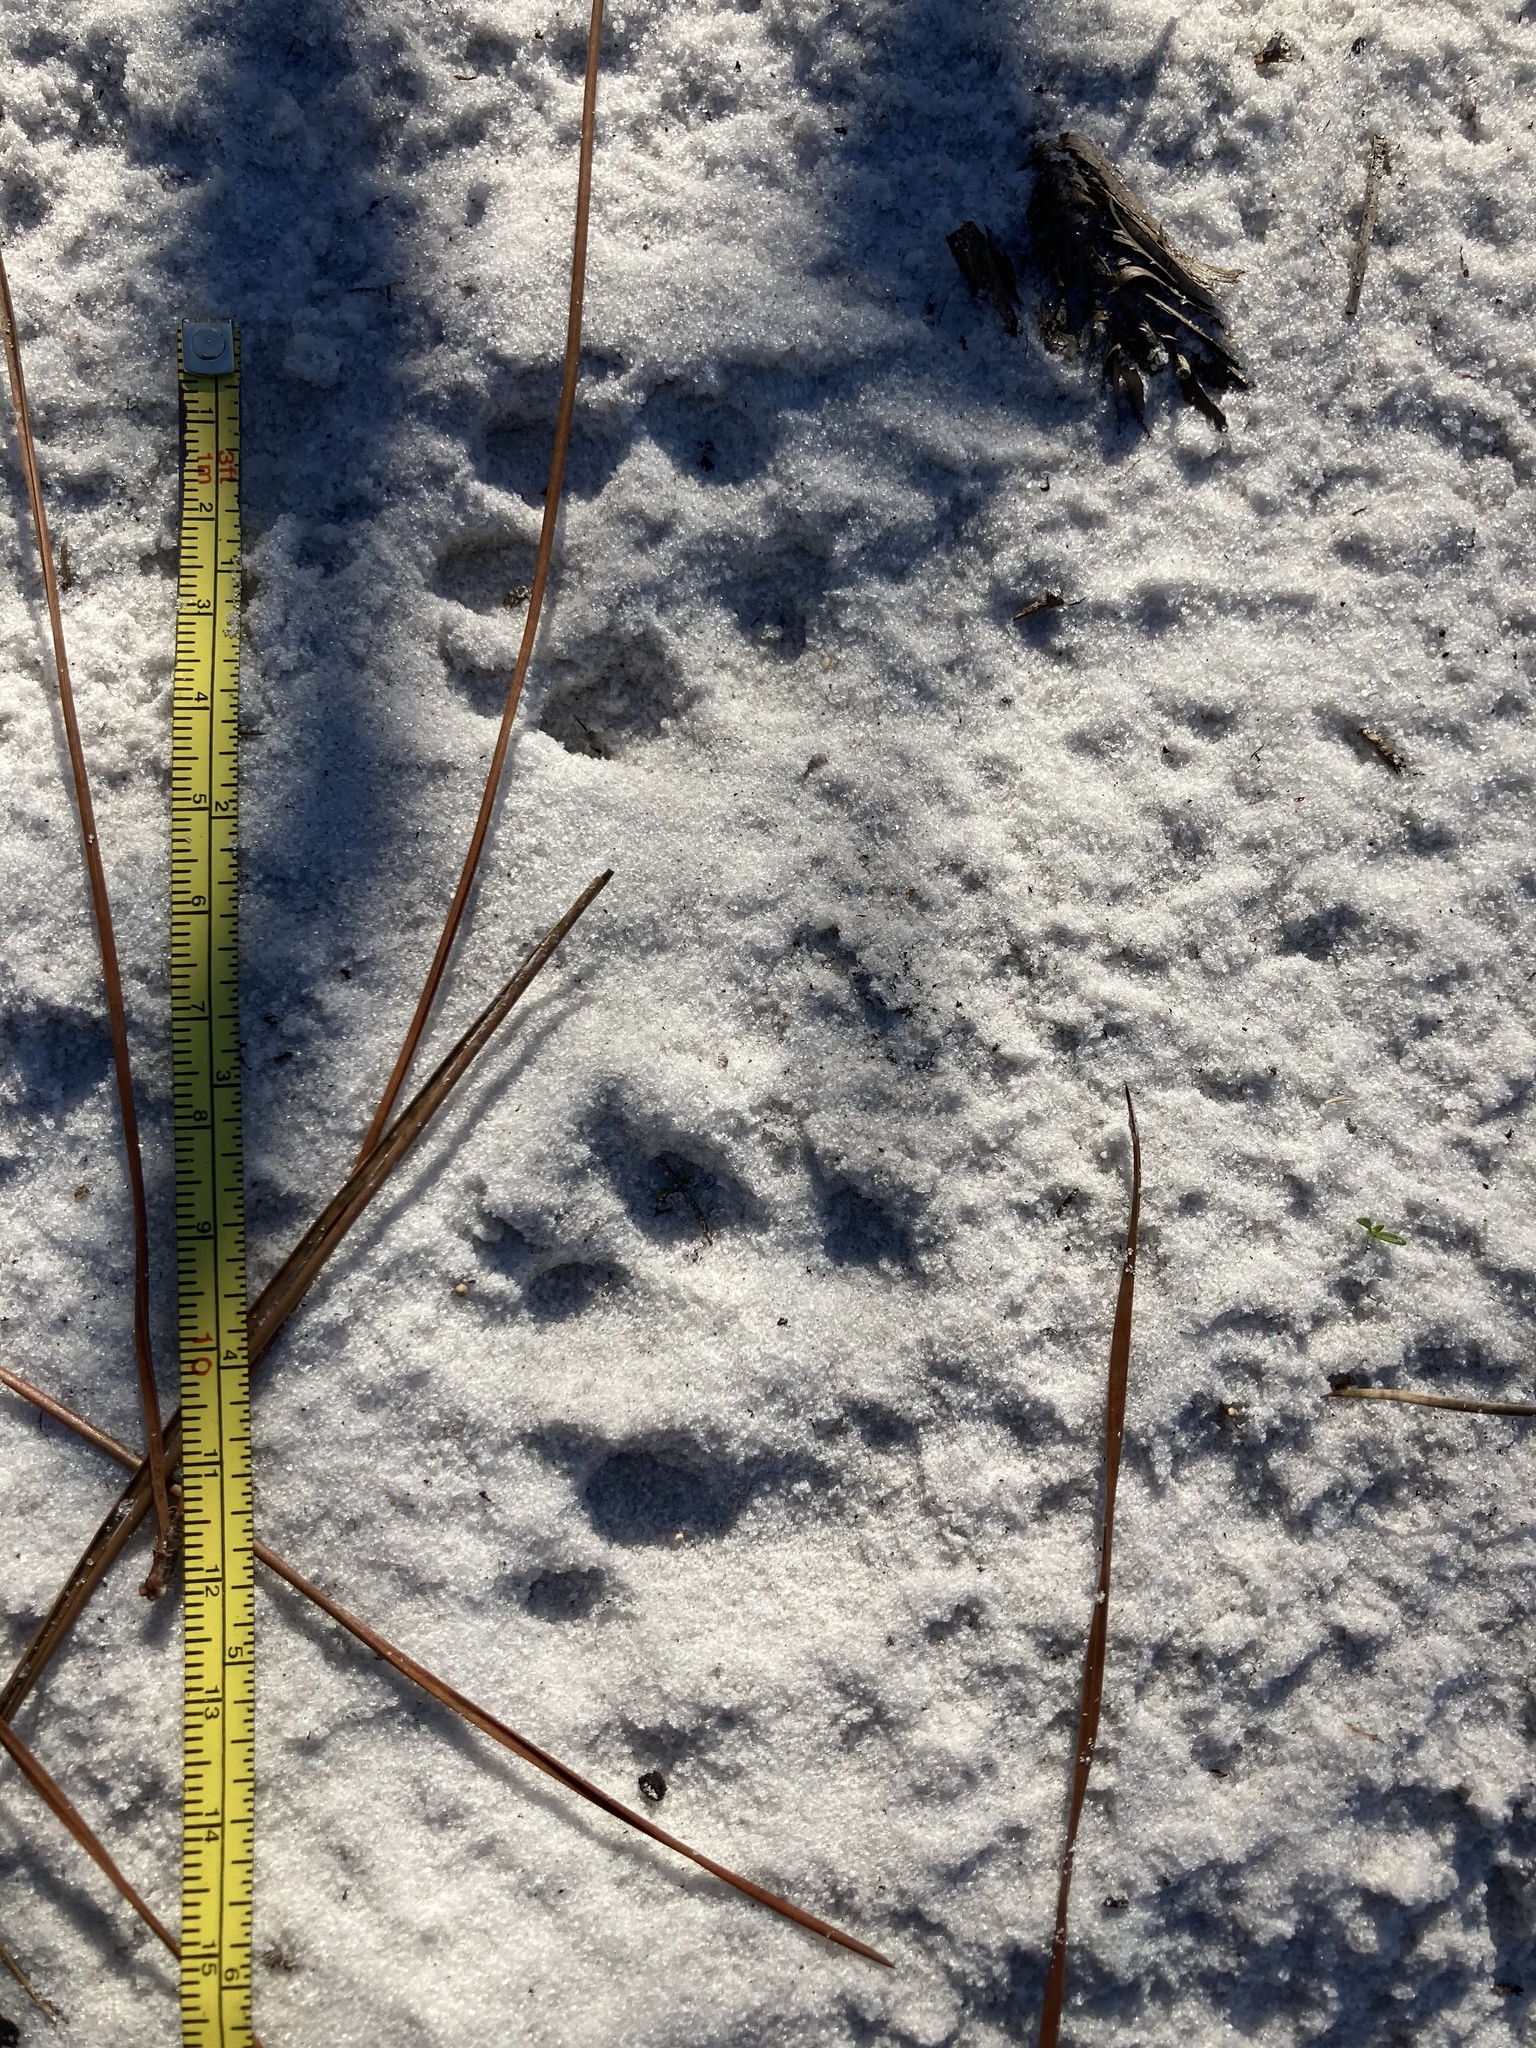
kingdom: Animalia
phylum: Chordata
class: Mammalia
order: Carnivora
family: Canidae
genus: Urocyon
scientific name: Urocyon cinereoargenteus
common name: Gray fox
